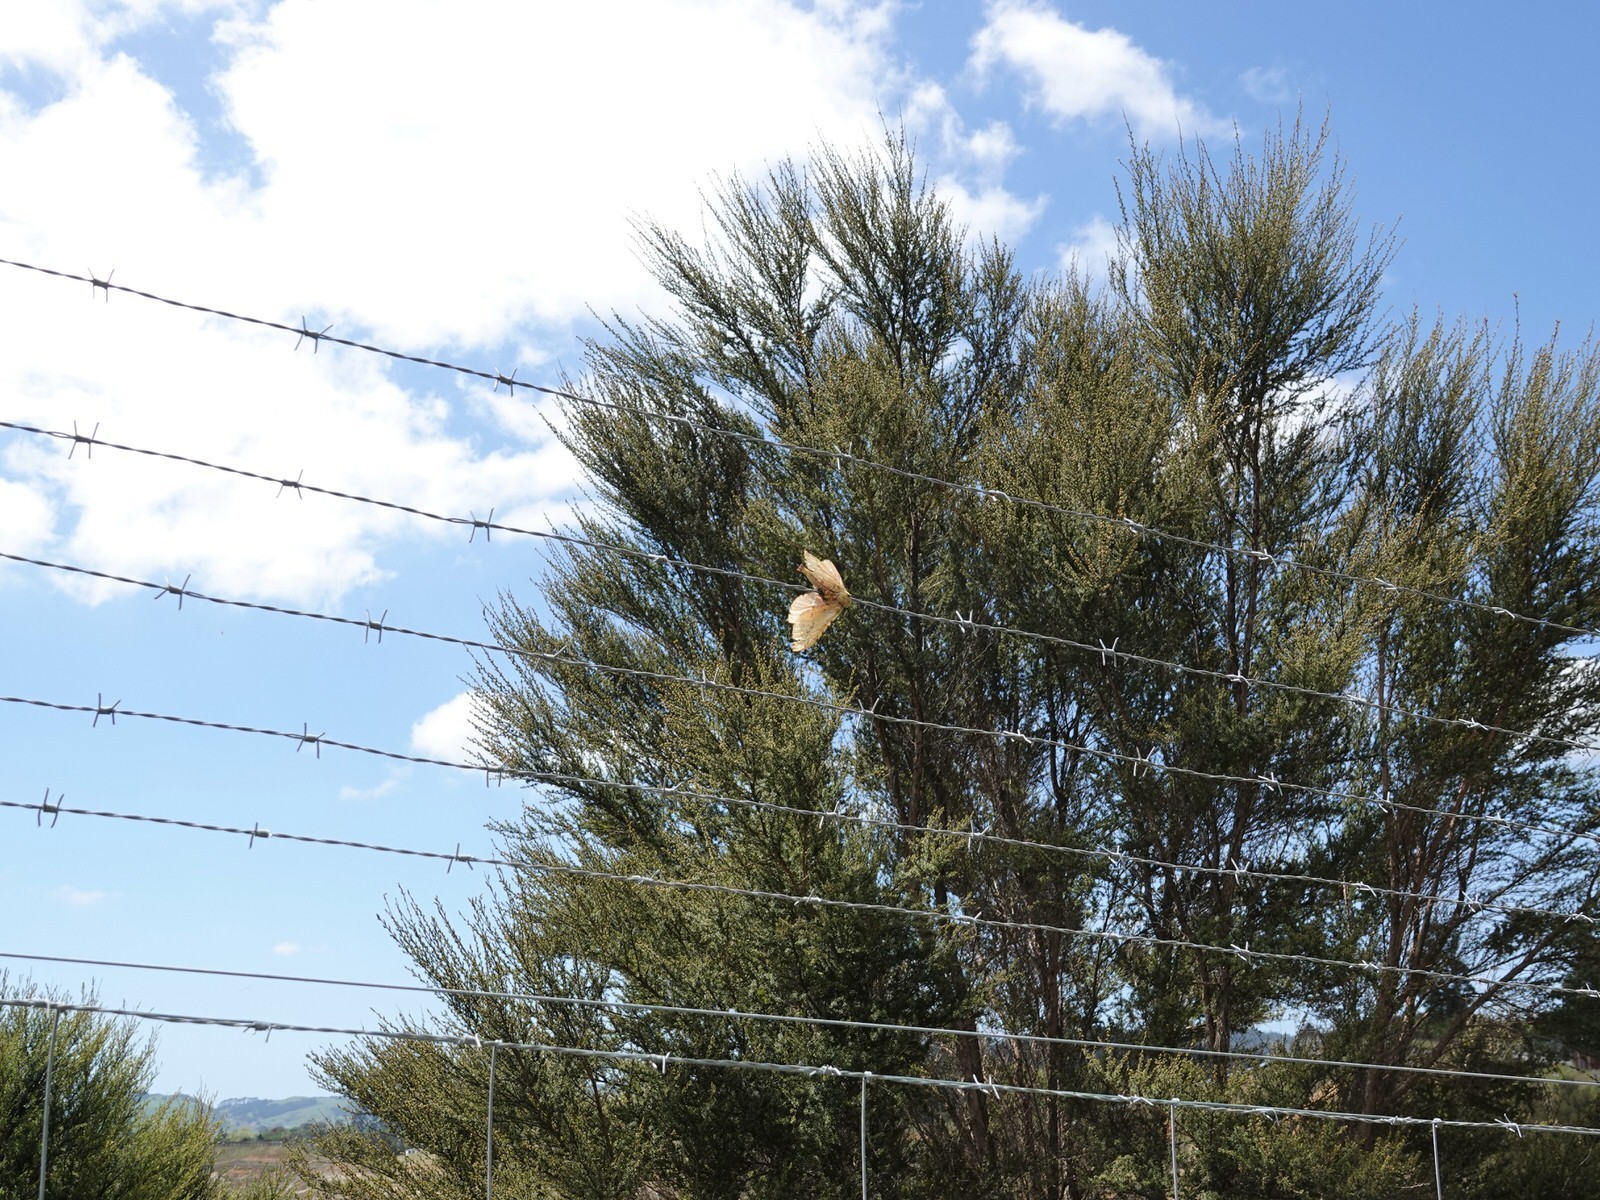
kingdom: Animalia
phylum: Arthropoda
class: Insecta
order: Lepidoptera
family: Hepialidae
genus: Aenetus
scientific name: Aenetus virescens
